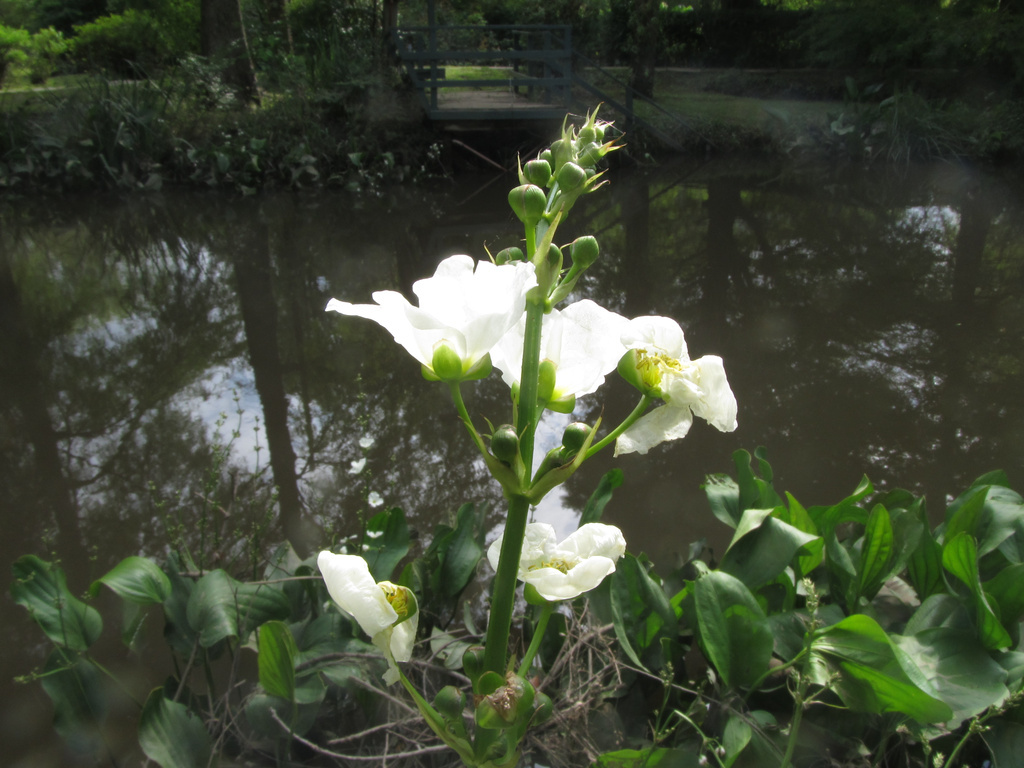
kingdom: Plantae
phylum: Tracheophyta
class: Liliopsida
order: Alismatales
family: Alismataceae
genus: Aquarius
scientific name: Aquarius grandiflorus
